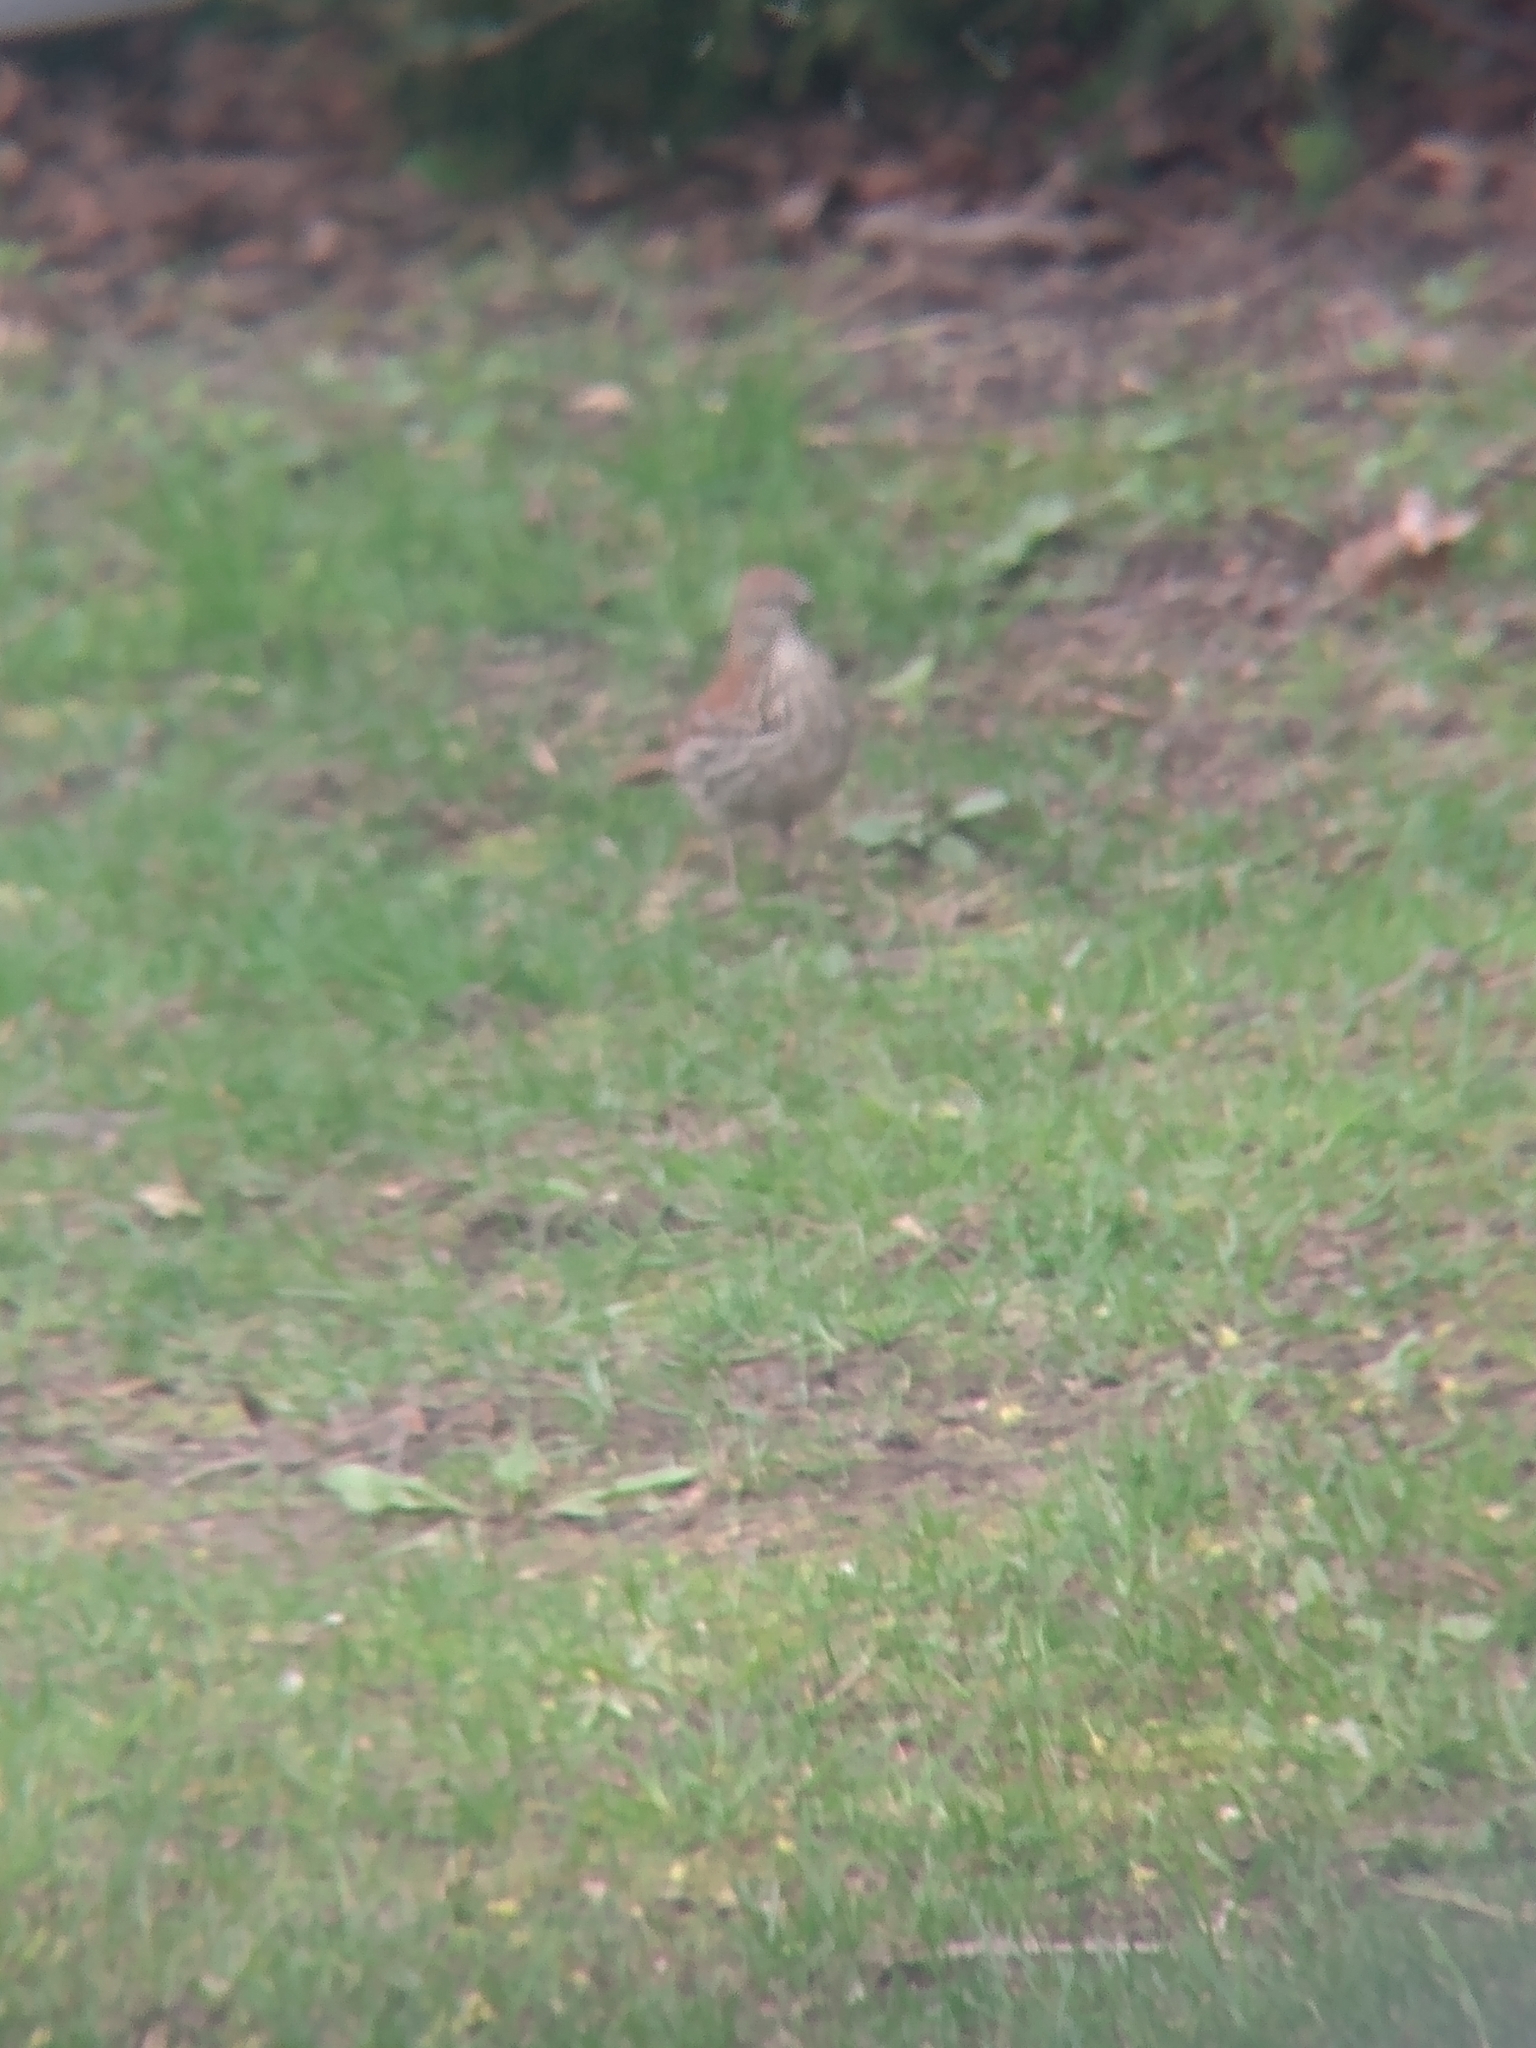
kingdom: Animalia
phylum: Chordata
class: Aves
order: Passeriformes
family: Mimidae
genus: Toxostoma
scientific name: Toxostoma rufum
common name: Brown thrasher
